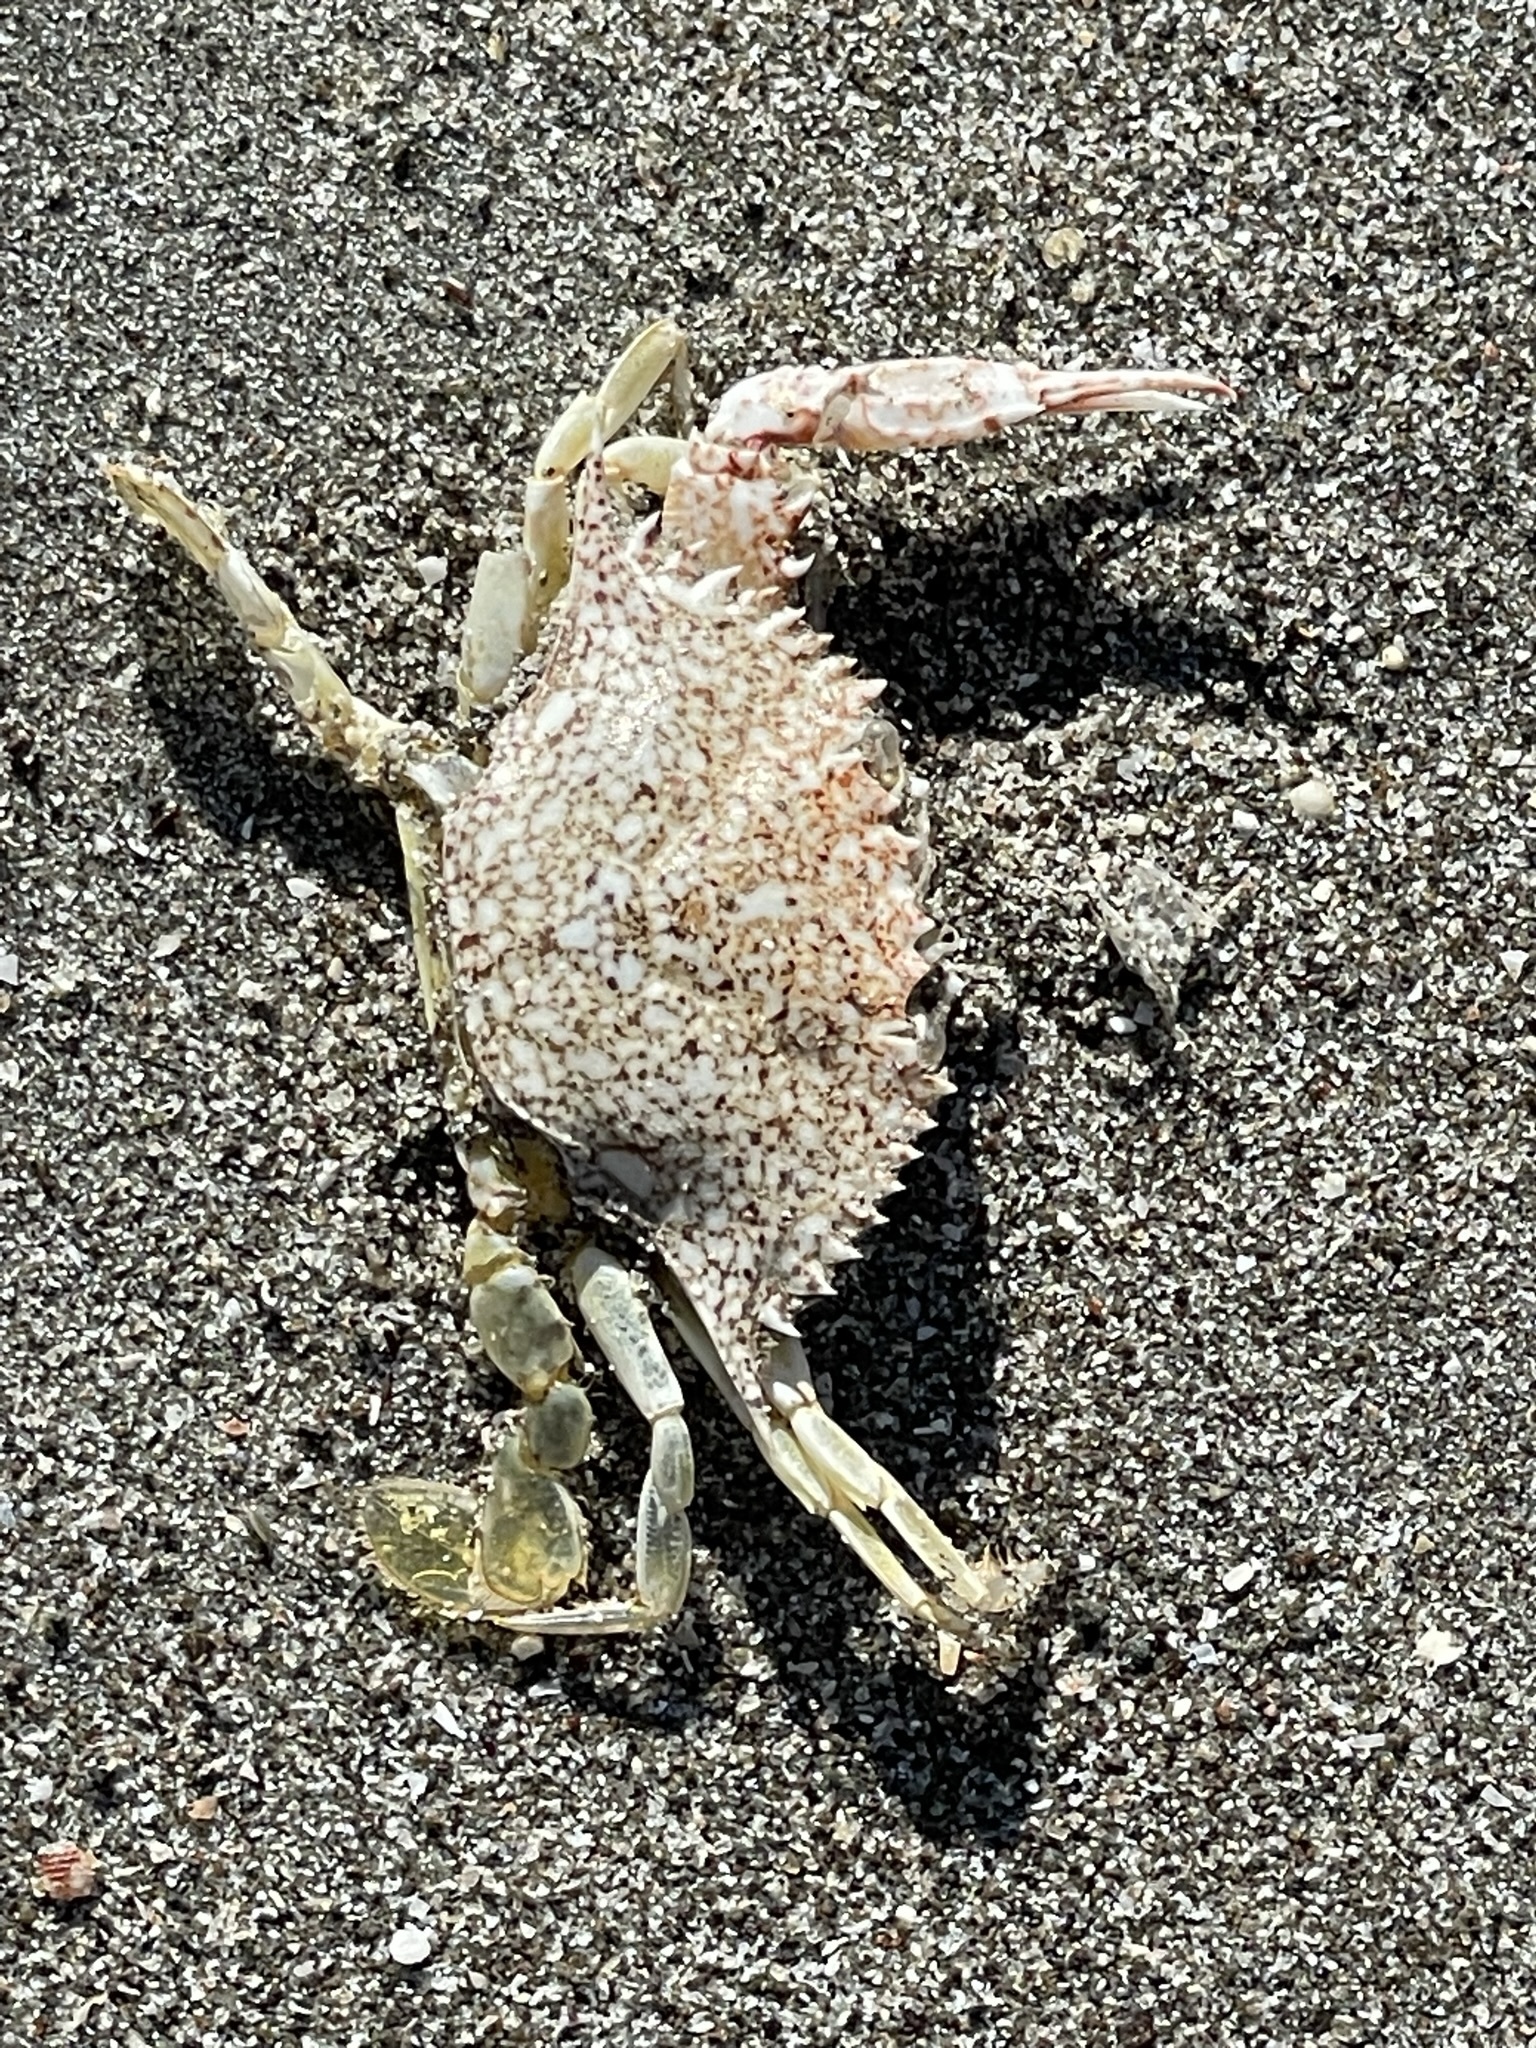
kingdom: Animalia
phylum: Arthropoda
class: Malacostraca
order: Decapoda
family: Portunidae
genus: Arenaeus
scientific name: Arenaeus mexicanus
